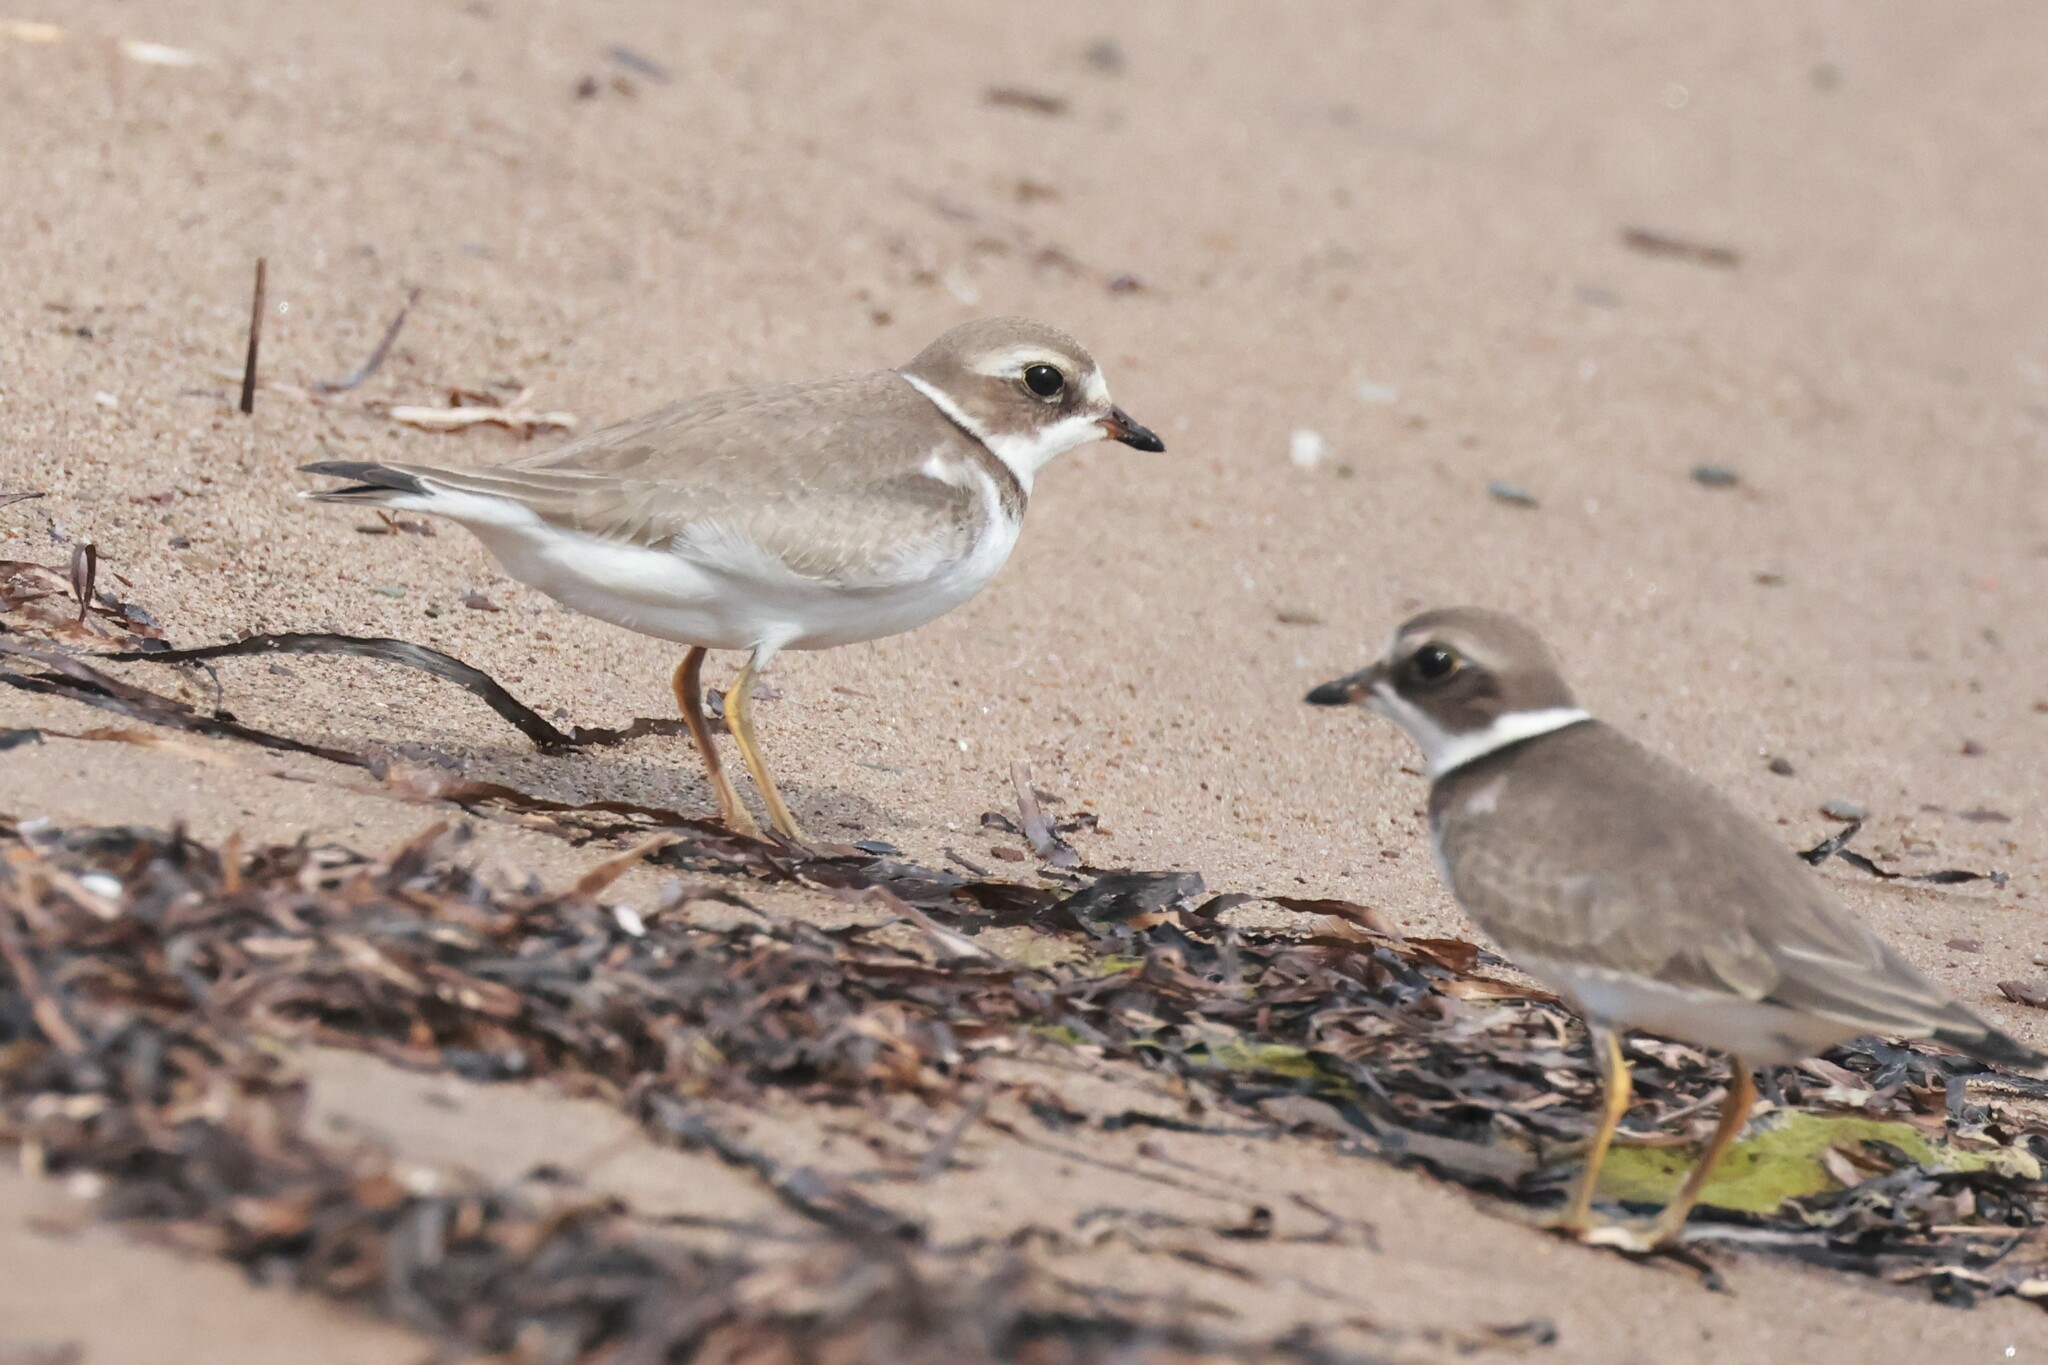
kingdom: Animalia
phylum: Chordata
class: Aves
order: Charadriiformes
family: Charadriidae
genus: Charadrius
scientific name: Charadrius semipalmatus
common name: Semipalmated plover
